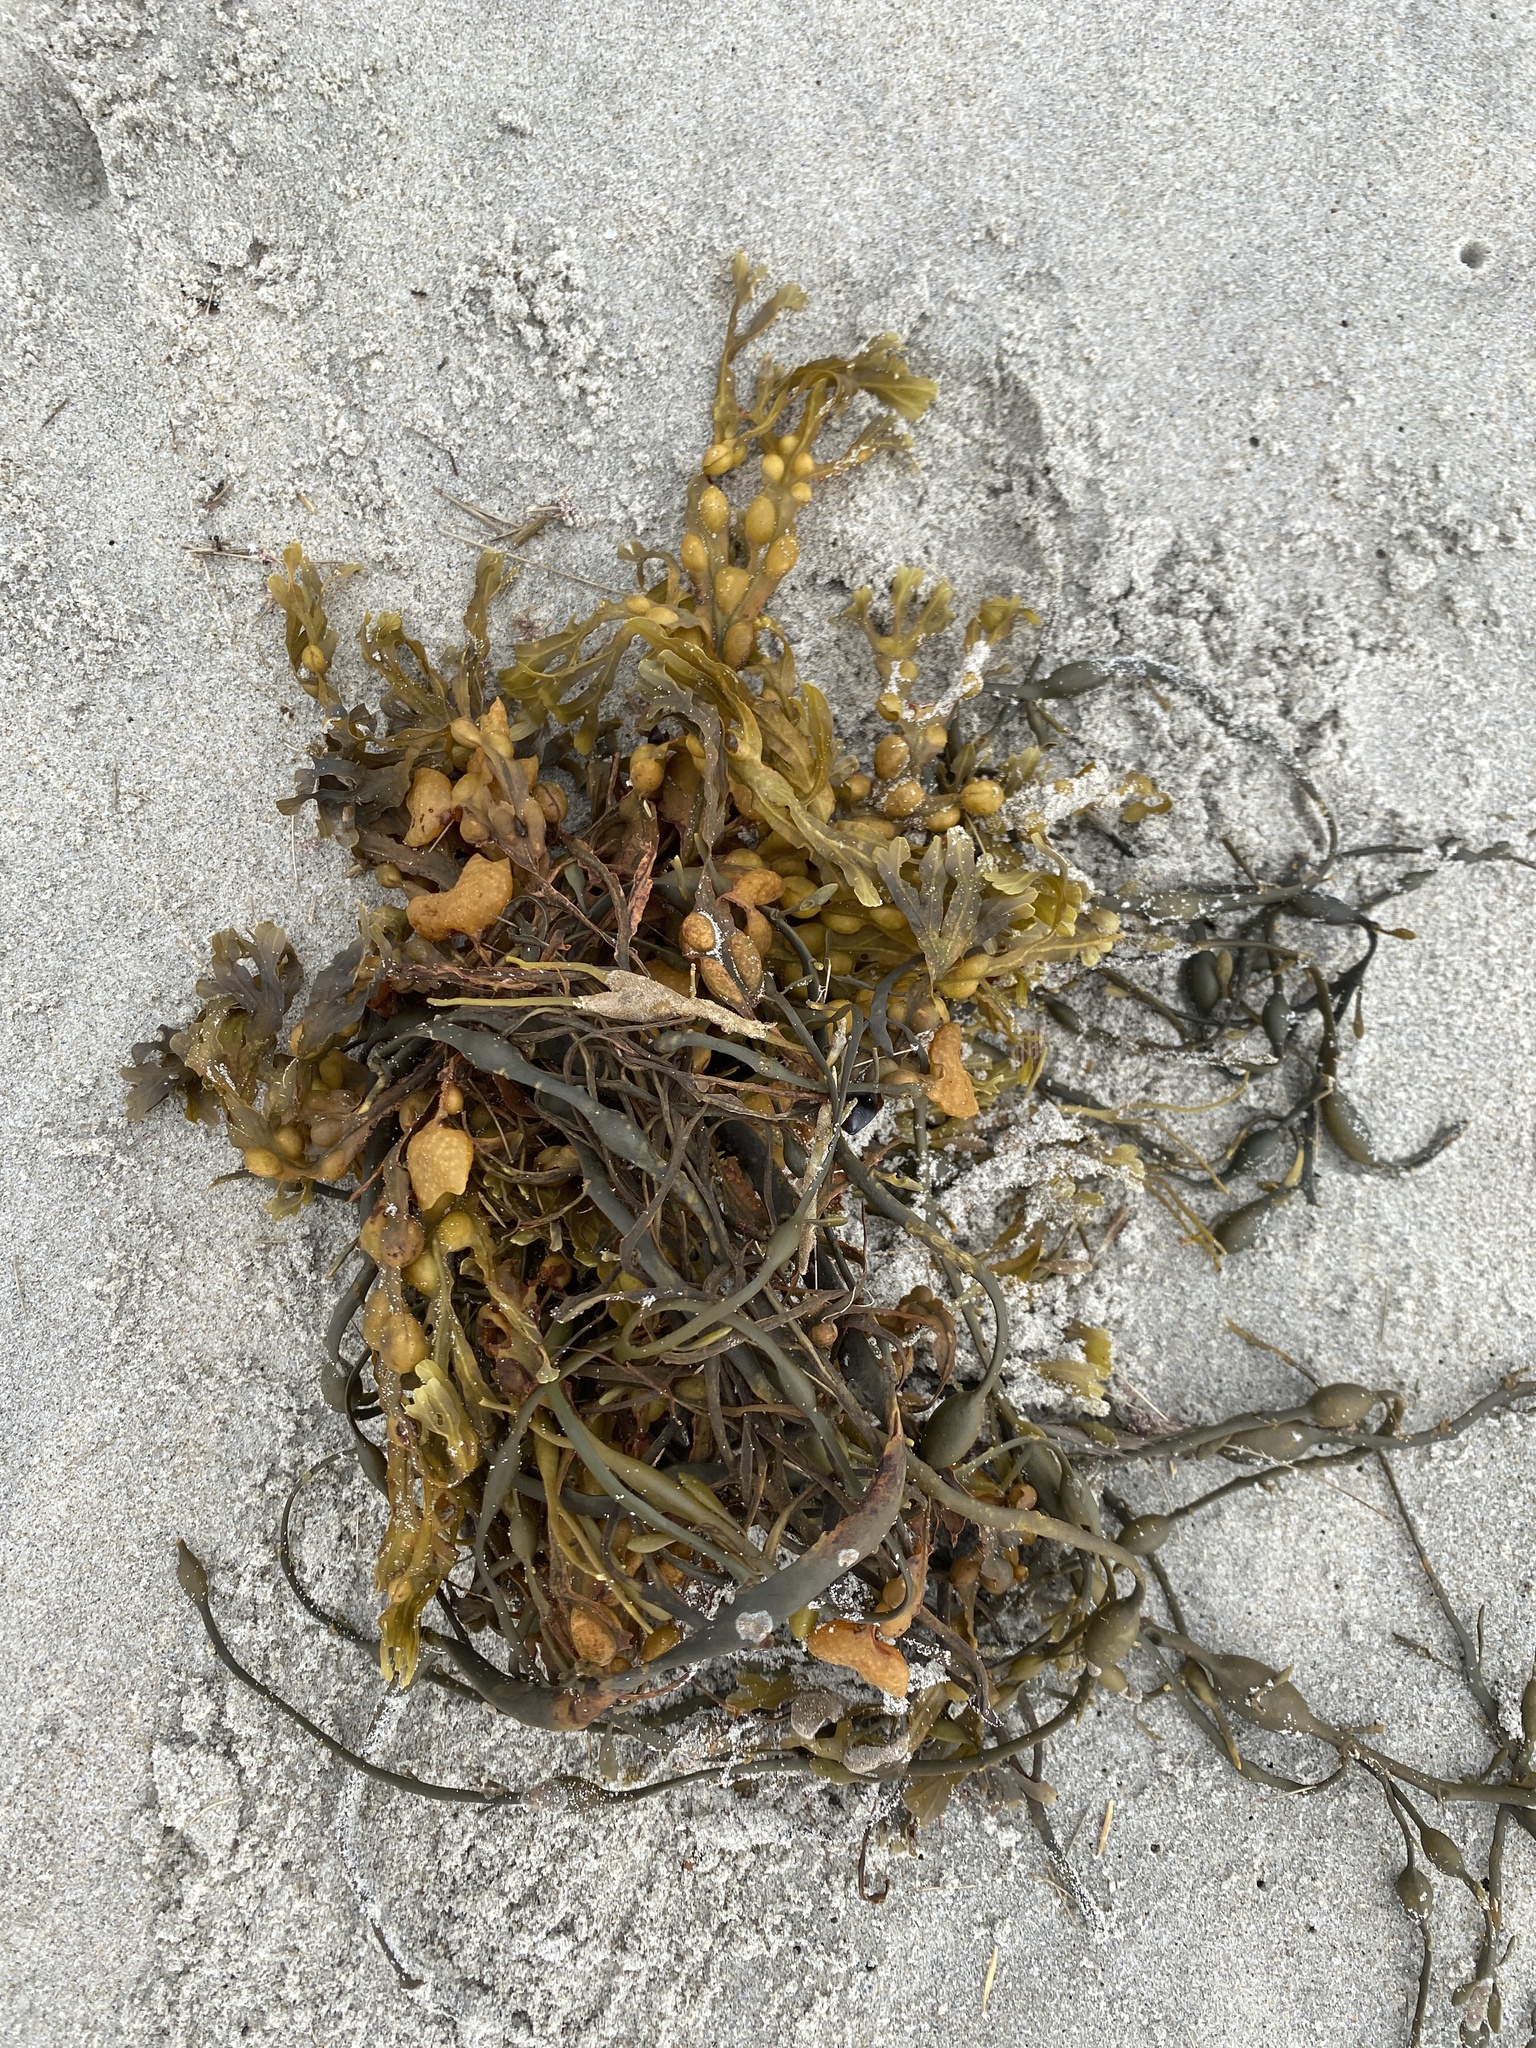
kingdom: Chromista
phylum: Ochrophyta
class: Phaeophyceae
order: Fucales
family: Fucaceae
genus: Fucus
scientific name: Fucus vesiculosus
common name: Bladder wrack
